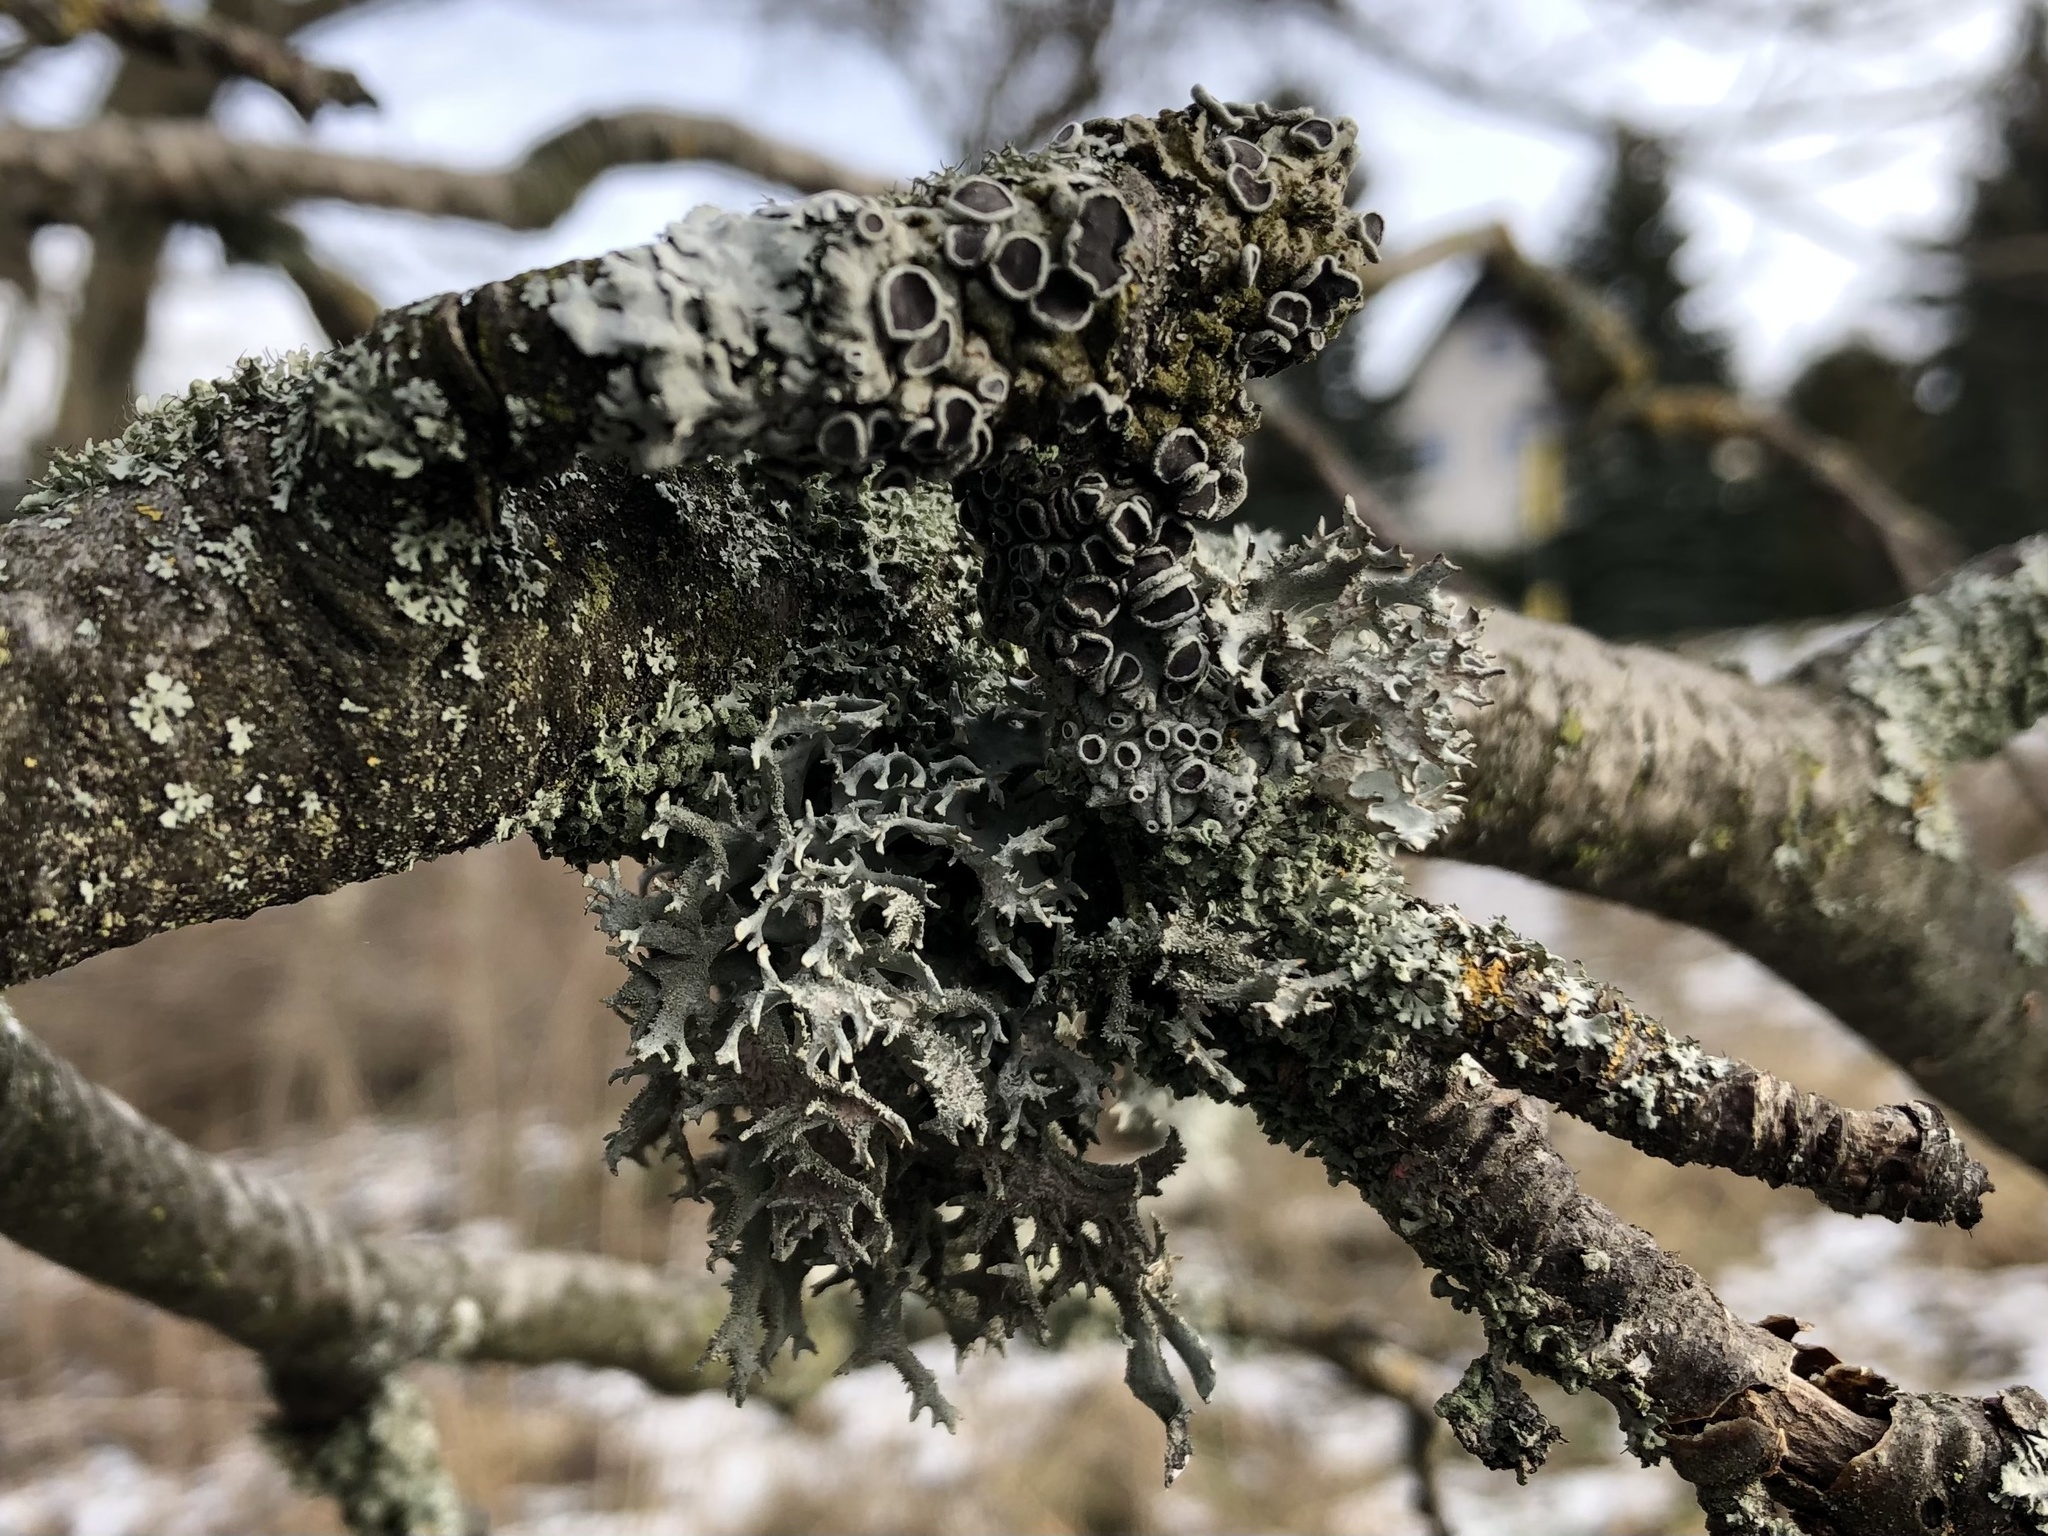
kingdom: Fungi
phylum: Ascomycota
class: Lecanoromycetes
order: Lecanorales
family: Parmeliaceae
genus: Pseudevernia
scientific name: Pseudevernia furfuracea
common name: Tree moss
